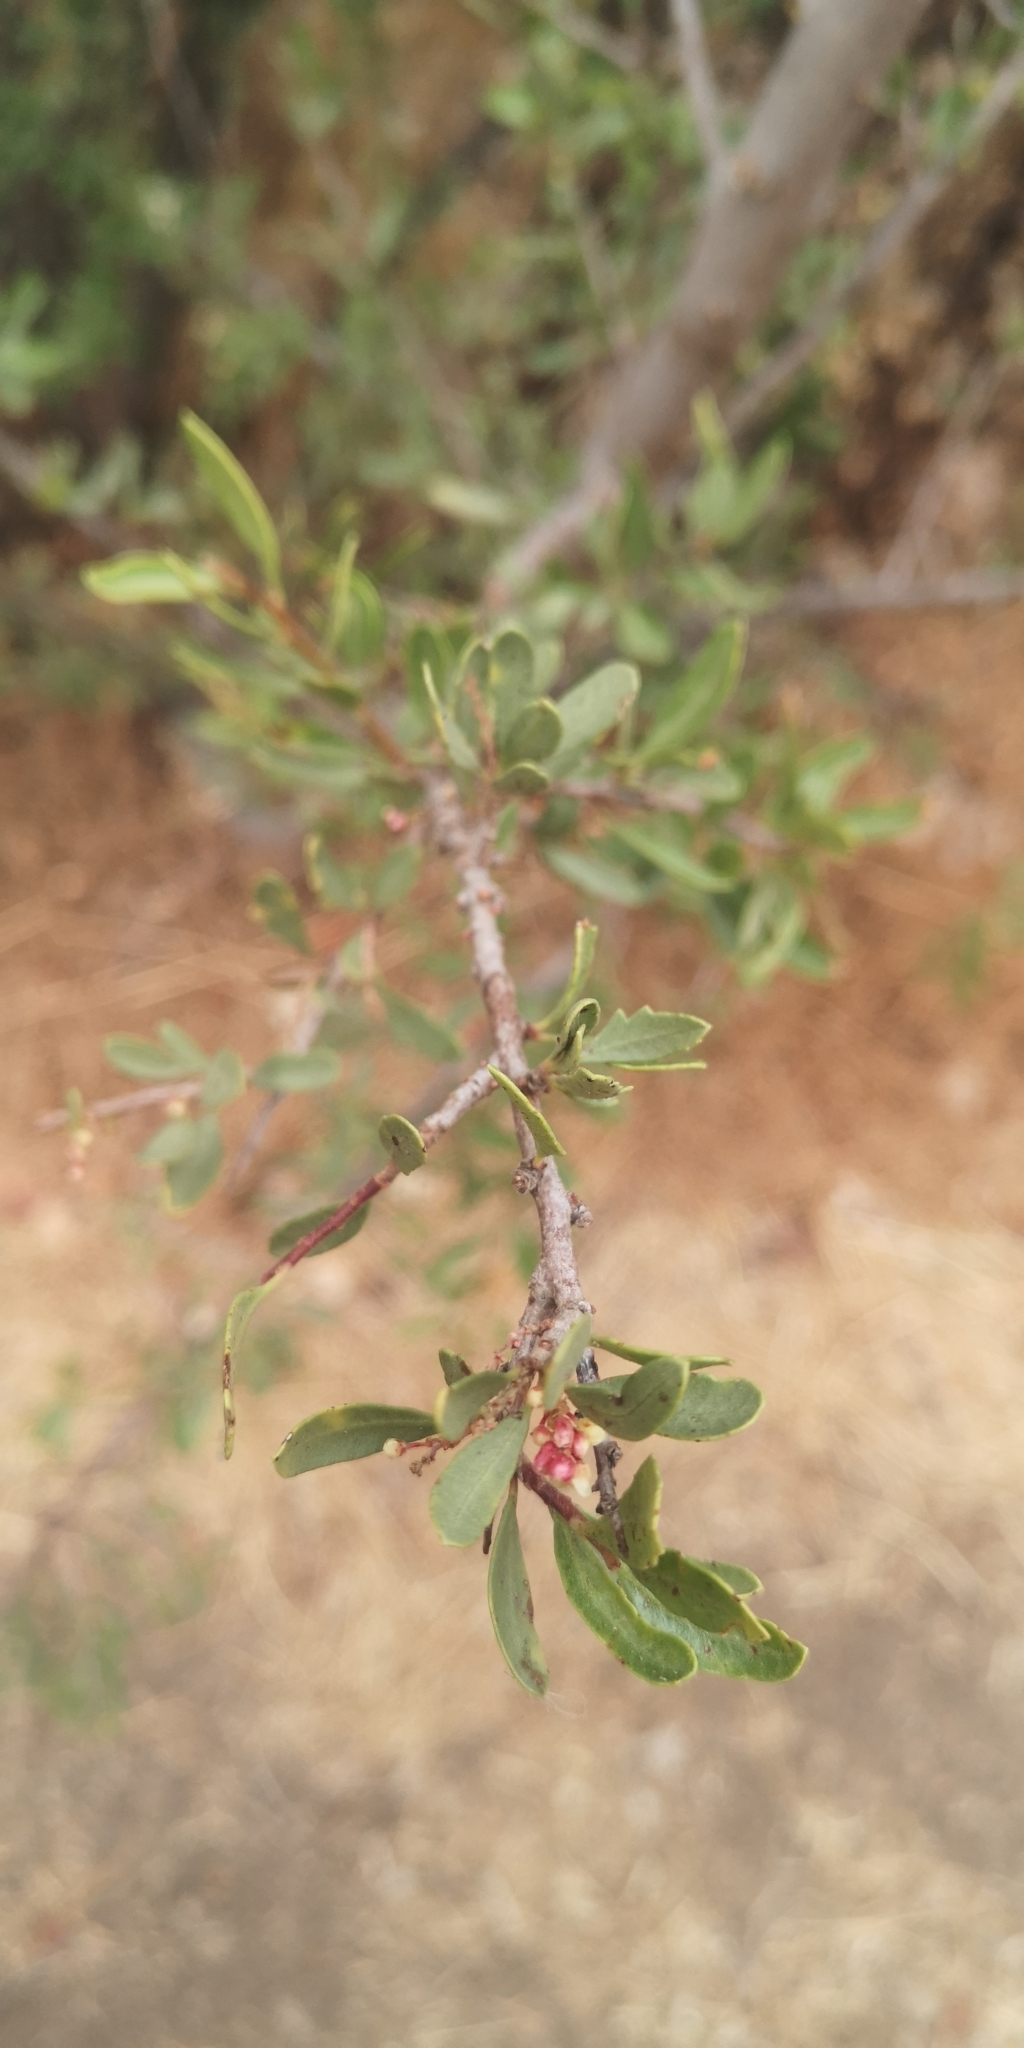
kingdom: Plantae
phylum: Tracheophyta
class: Magnoliopsida
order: Sapindales
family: Anacardiaceae
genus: Schinus
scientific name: Schinus polygama
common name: Hardee peppertree
